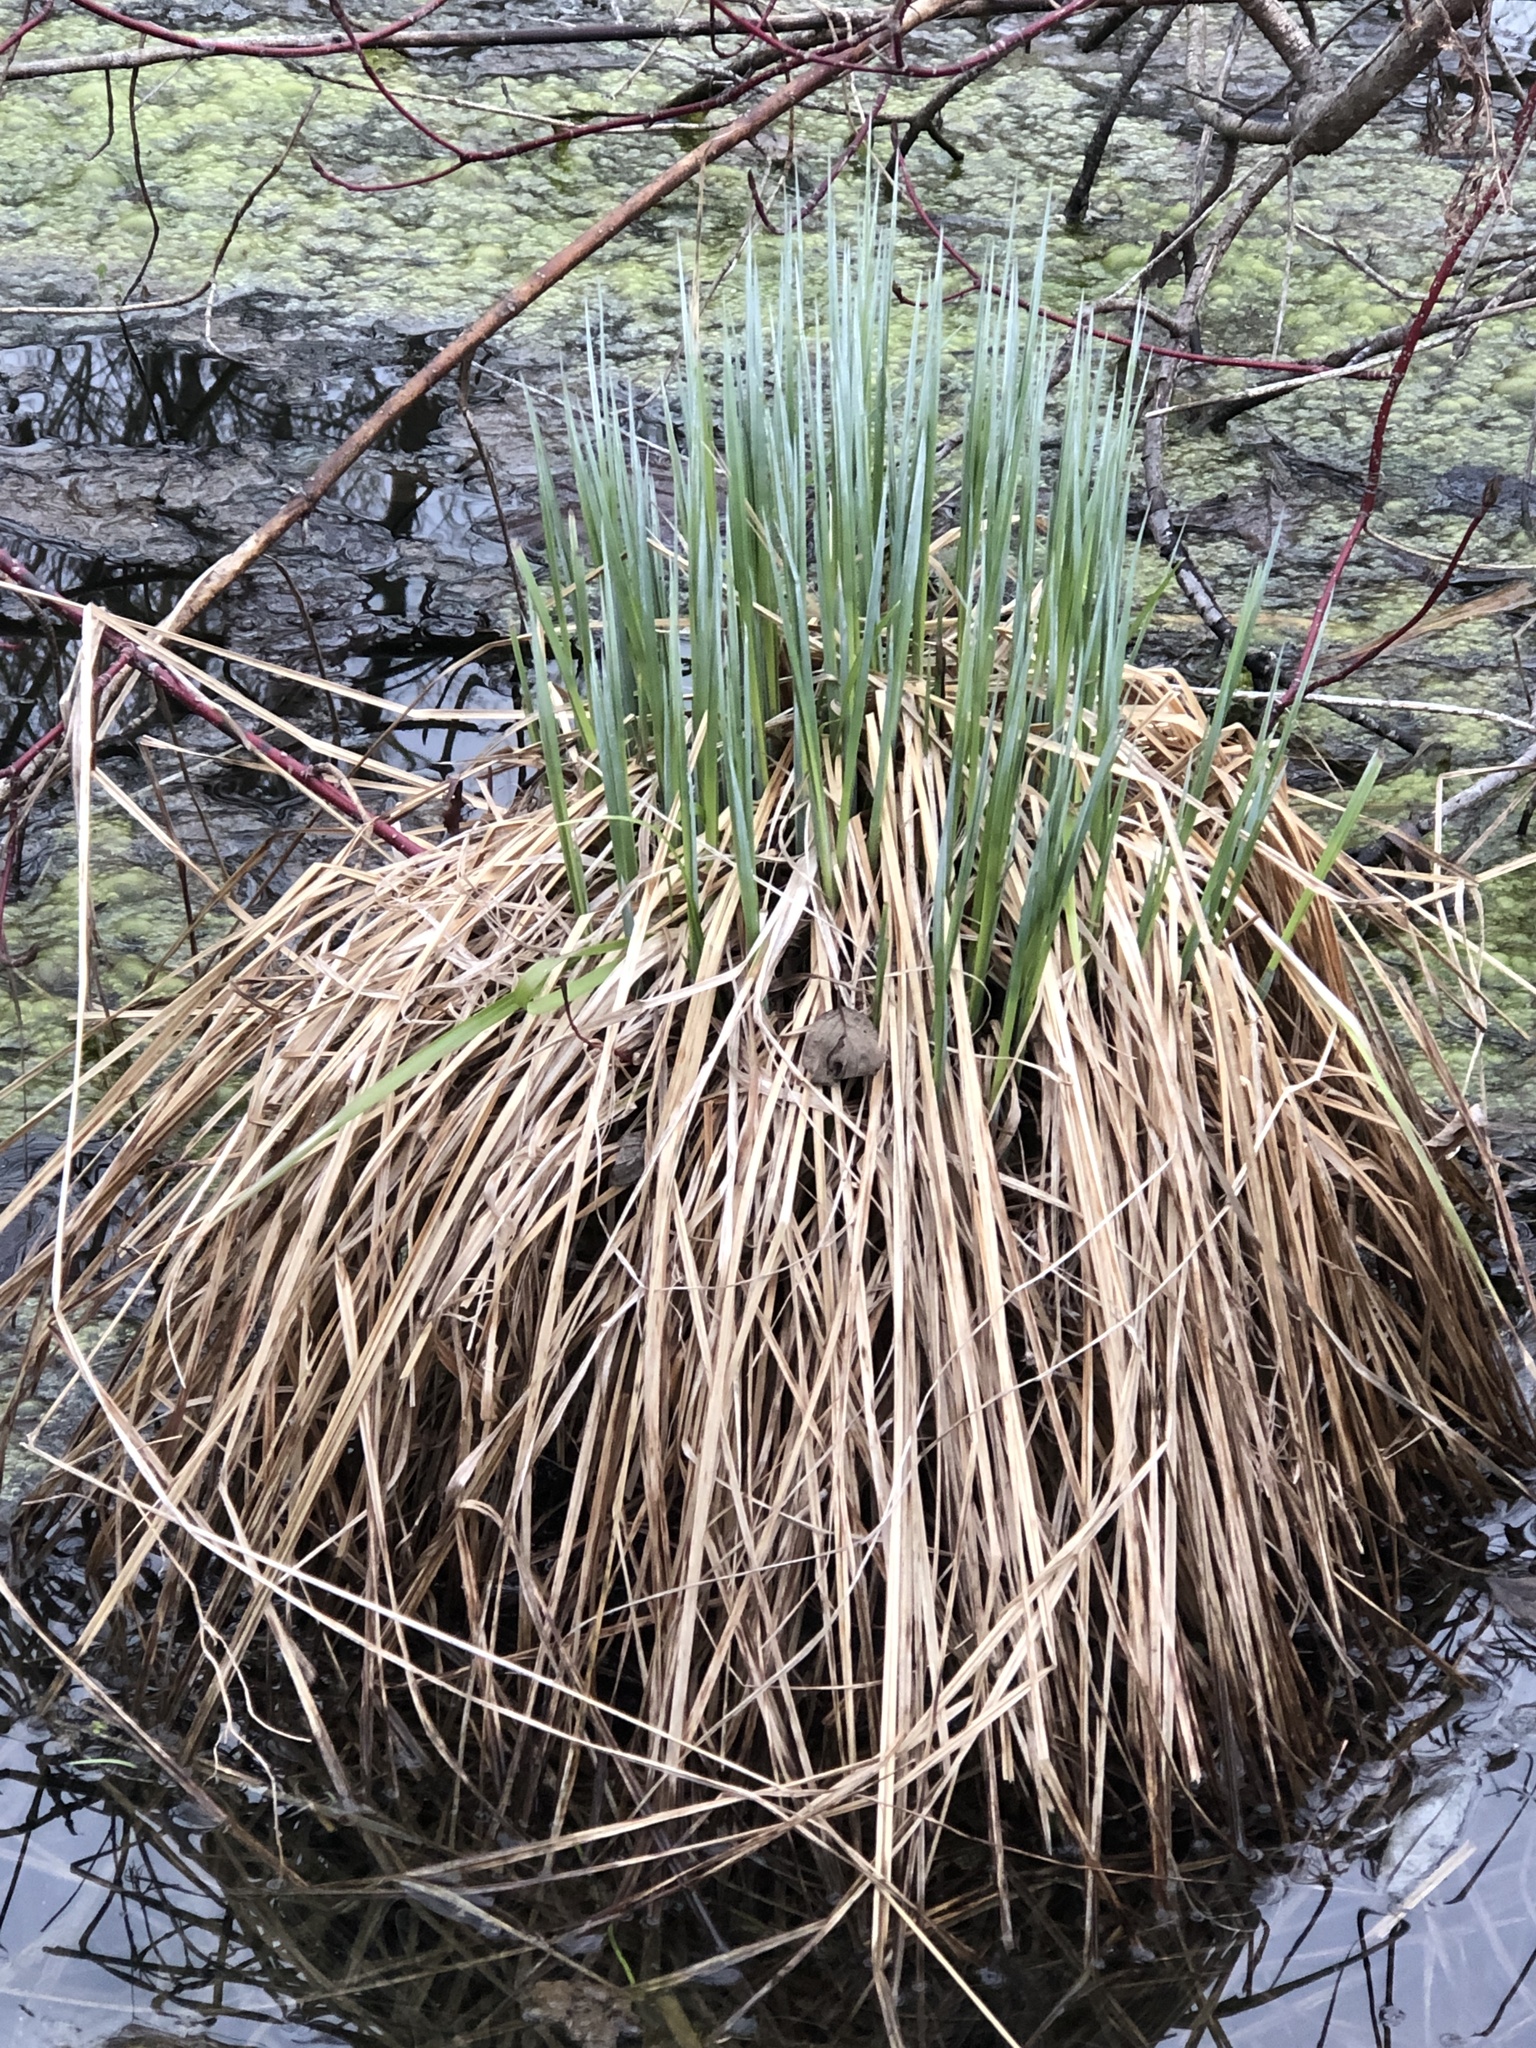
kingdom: Plantae
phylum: Tracheophyta
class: Liliopsida
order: Poales
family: Cyperaceae
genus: Carex
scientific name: Carex stricta
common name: Hummock sedge
